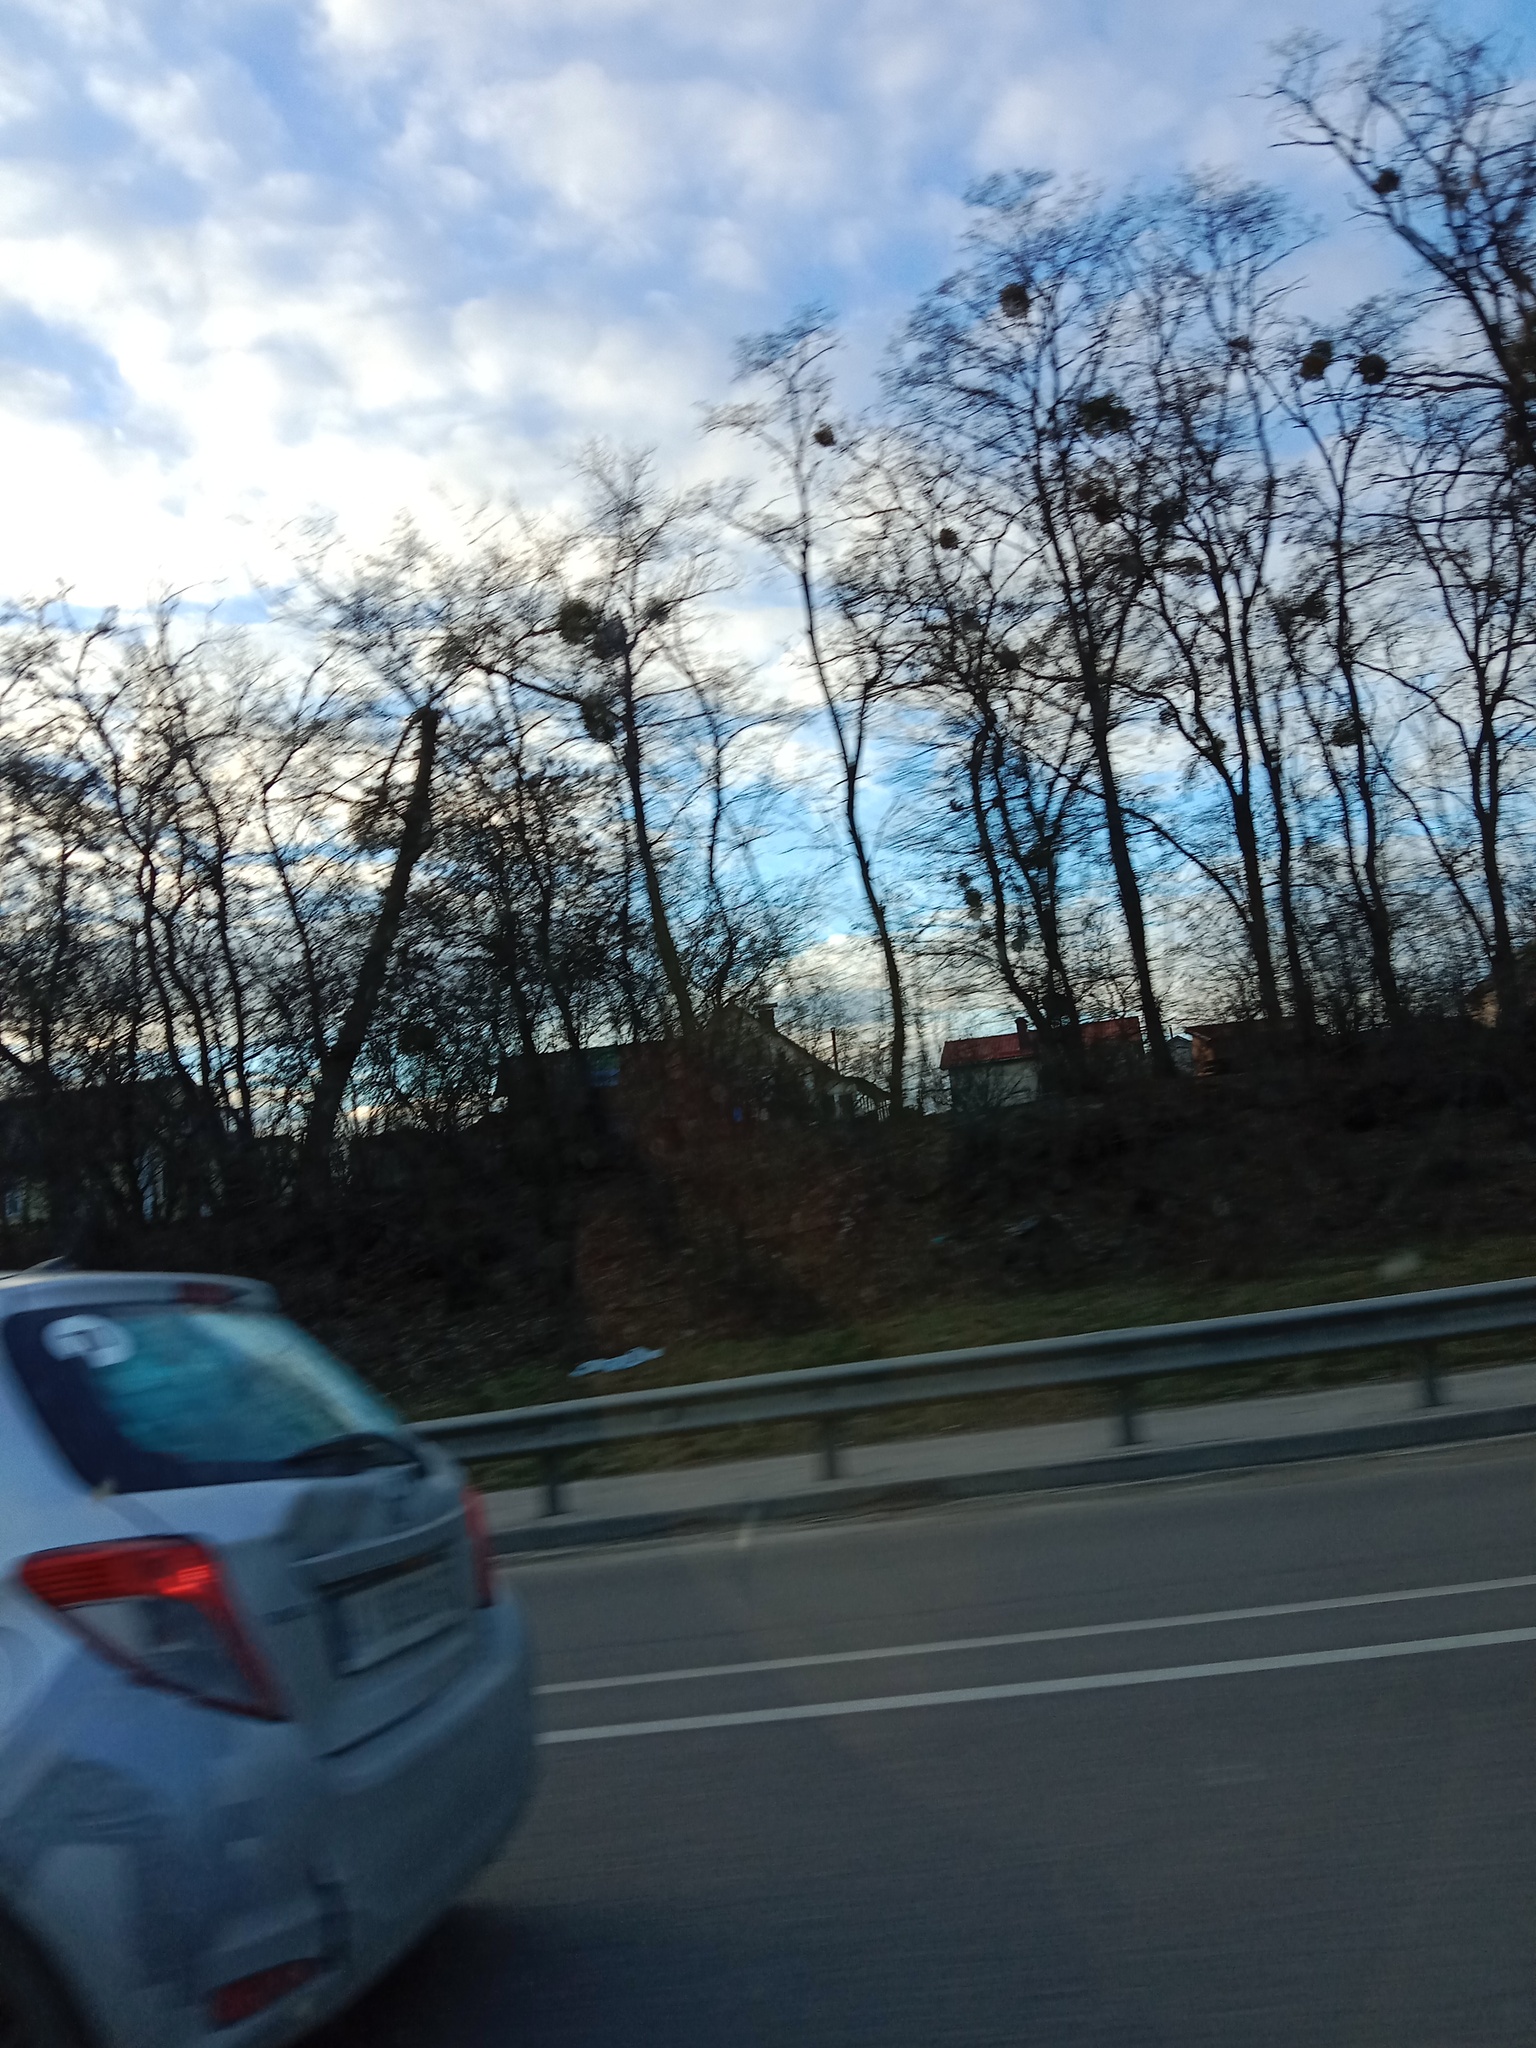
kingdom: Plantae
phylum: Tracheophyta
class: Magnoliopsida
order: Santalales
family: Viscaceae
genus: Viscum
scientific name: Viscum album
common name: Mistletoe
